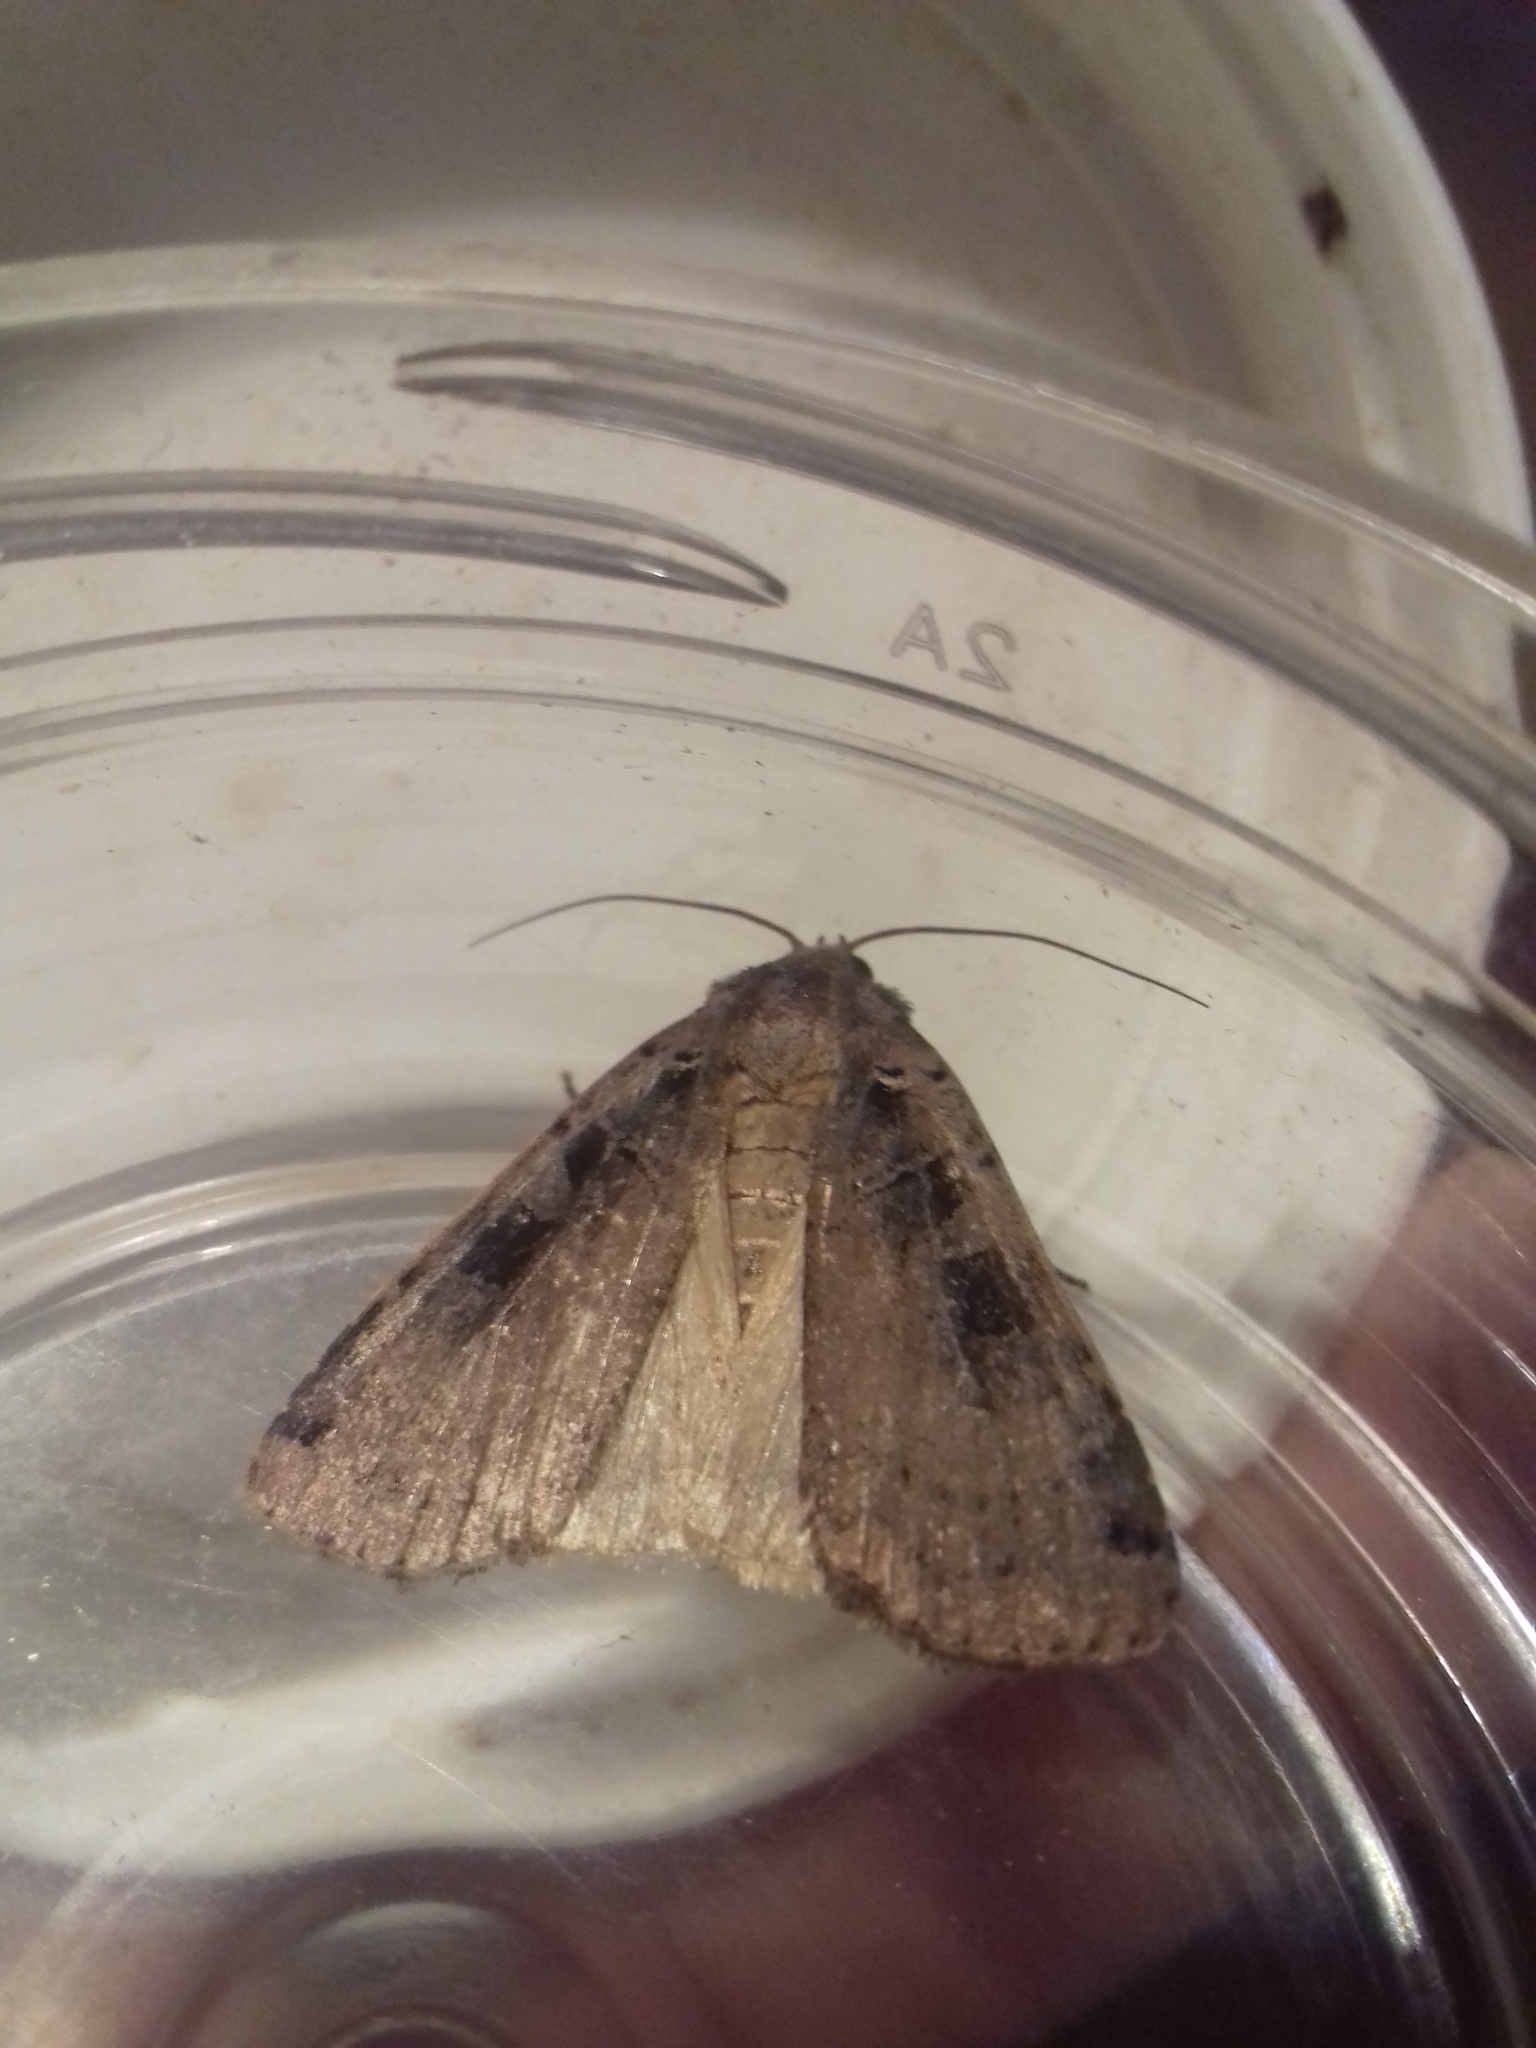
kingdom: Animalia
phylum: Arthropoda
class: Insecta
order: Lepidoptera
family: Noctuidae
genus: Xestia
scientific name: Xestia ditrapezium
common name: Triple-spotted clay
